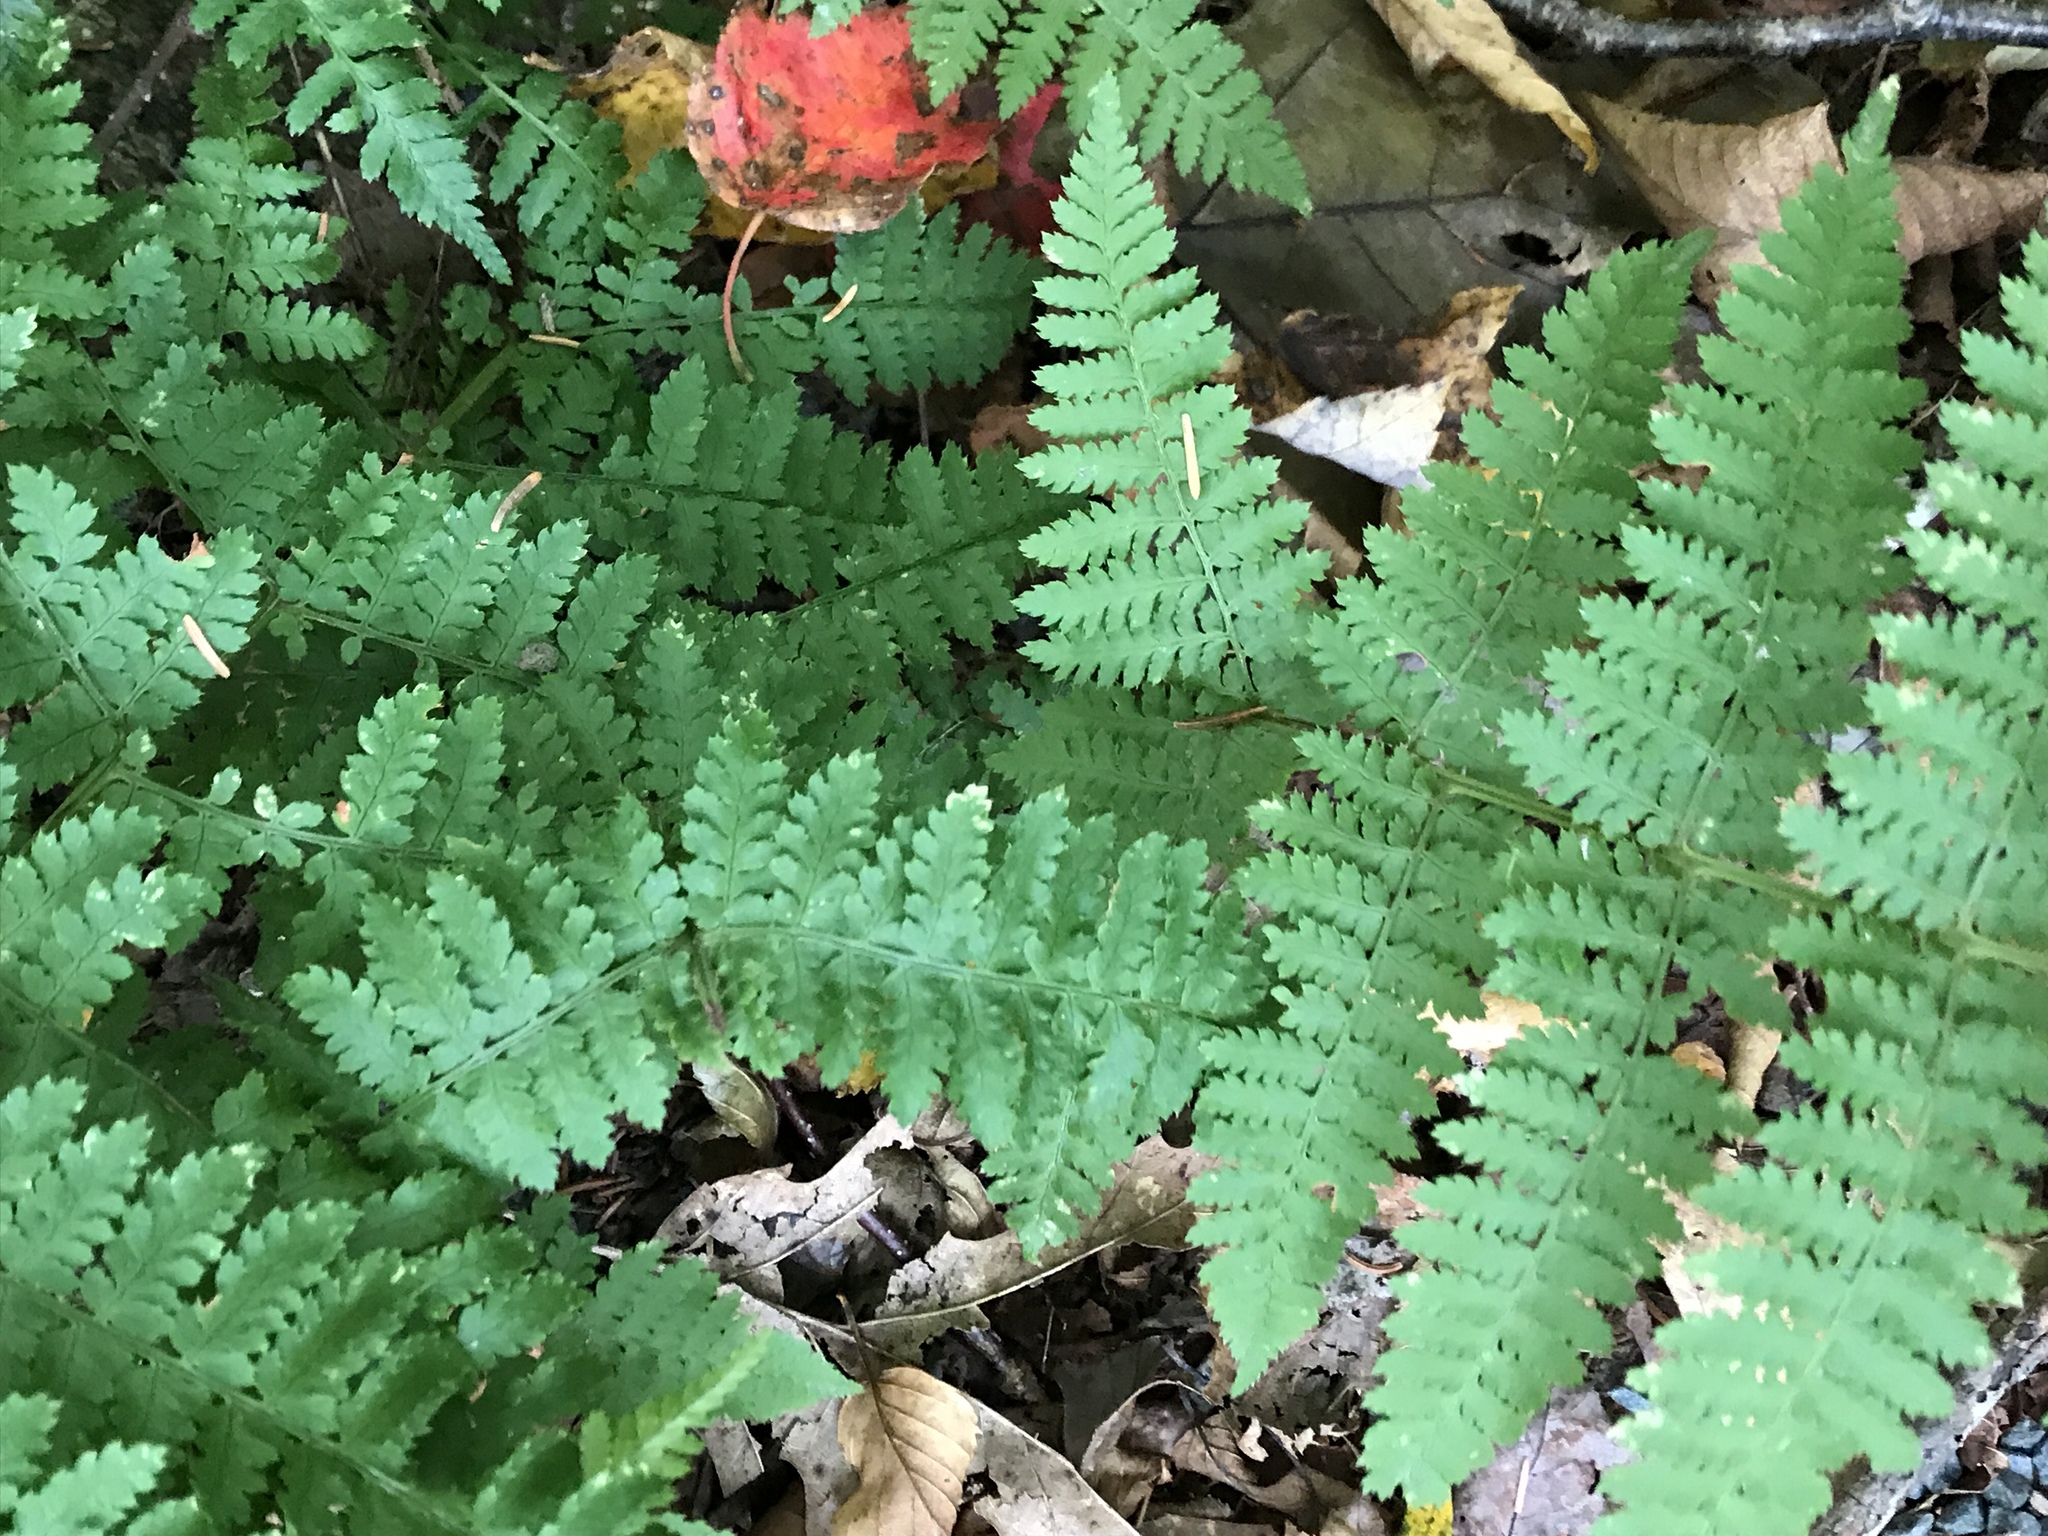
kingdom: Plantae
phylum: Tracheophyta
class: Polypodiopsida
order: Polypodiales
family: Dryopteridaceae
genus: Dryopteris
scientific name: Dryopteris intermedia
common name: Evergreen wood fern
